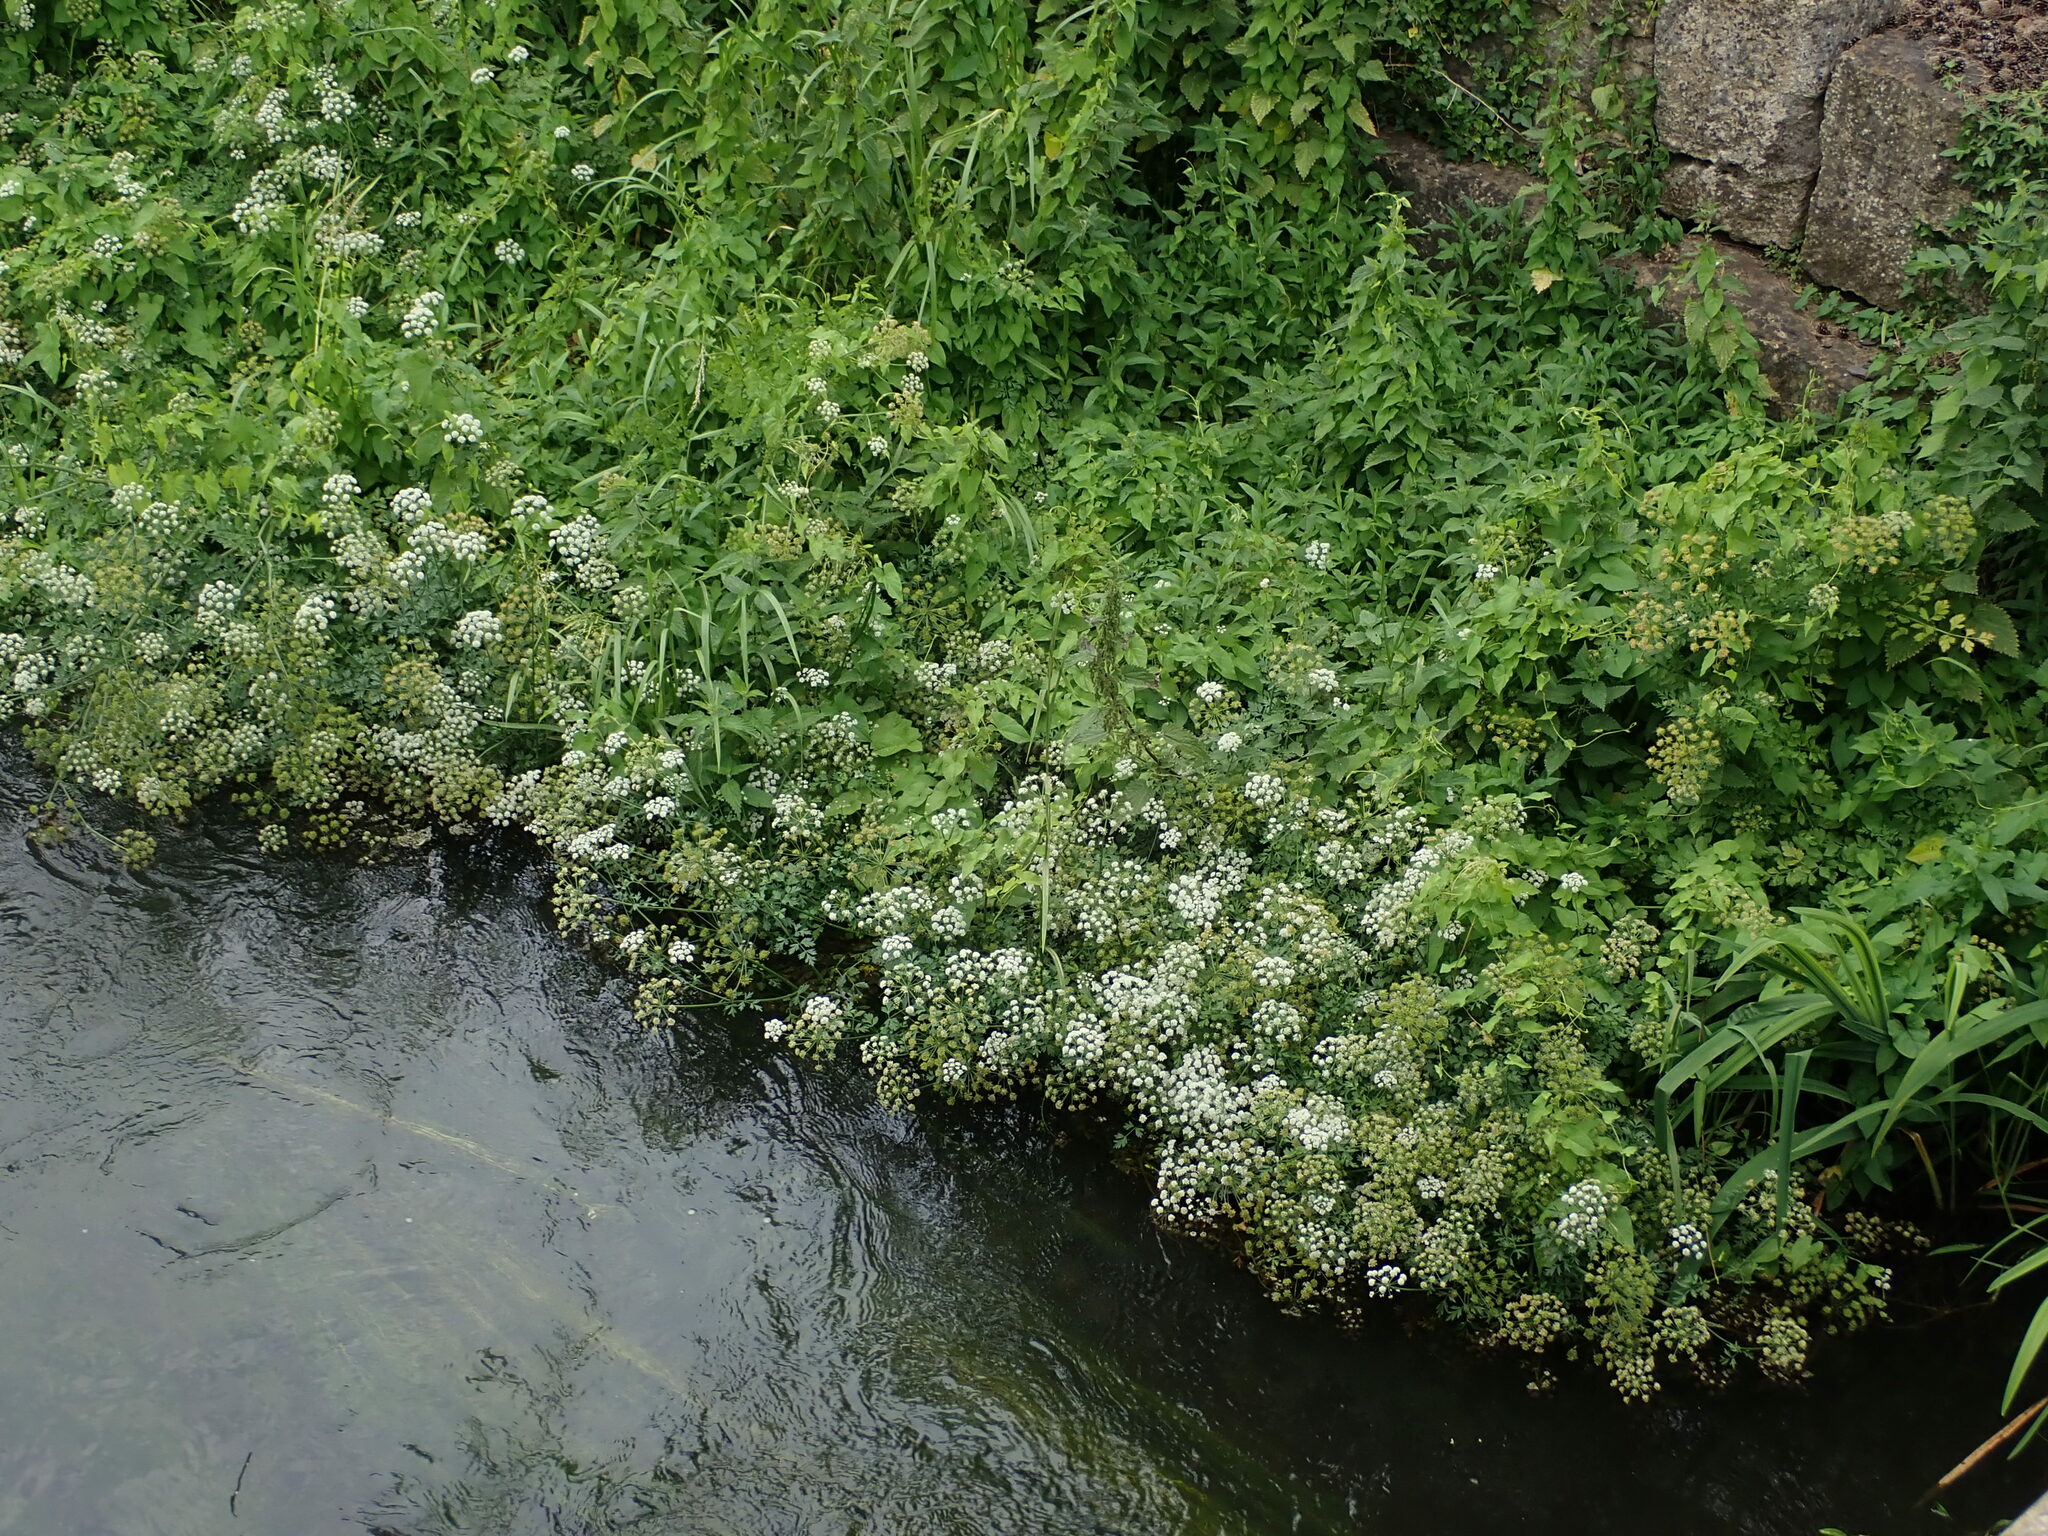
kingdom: Plantae
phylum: Tracheophyta
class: Magnoliopsida
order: Apiales
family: Apiaceae
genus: Oenanthe
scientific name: Oenanthe crocata
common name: Hemlock water-dropwort
